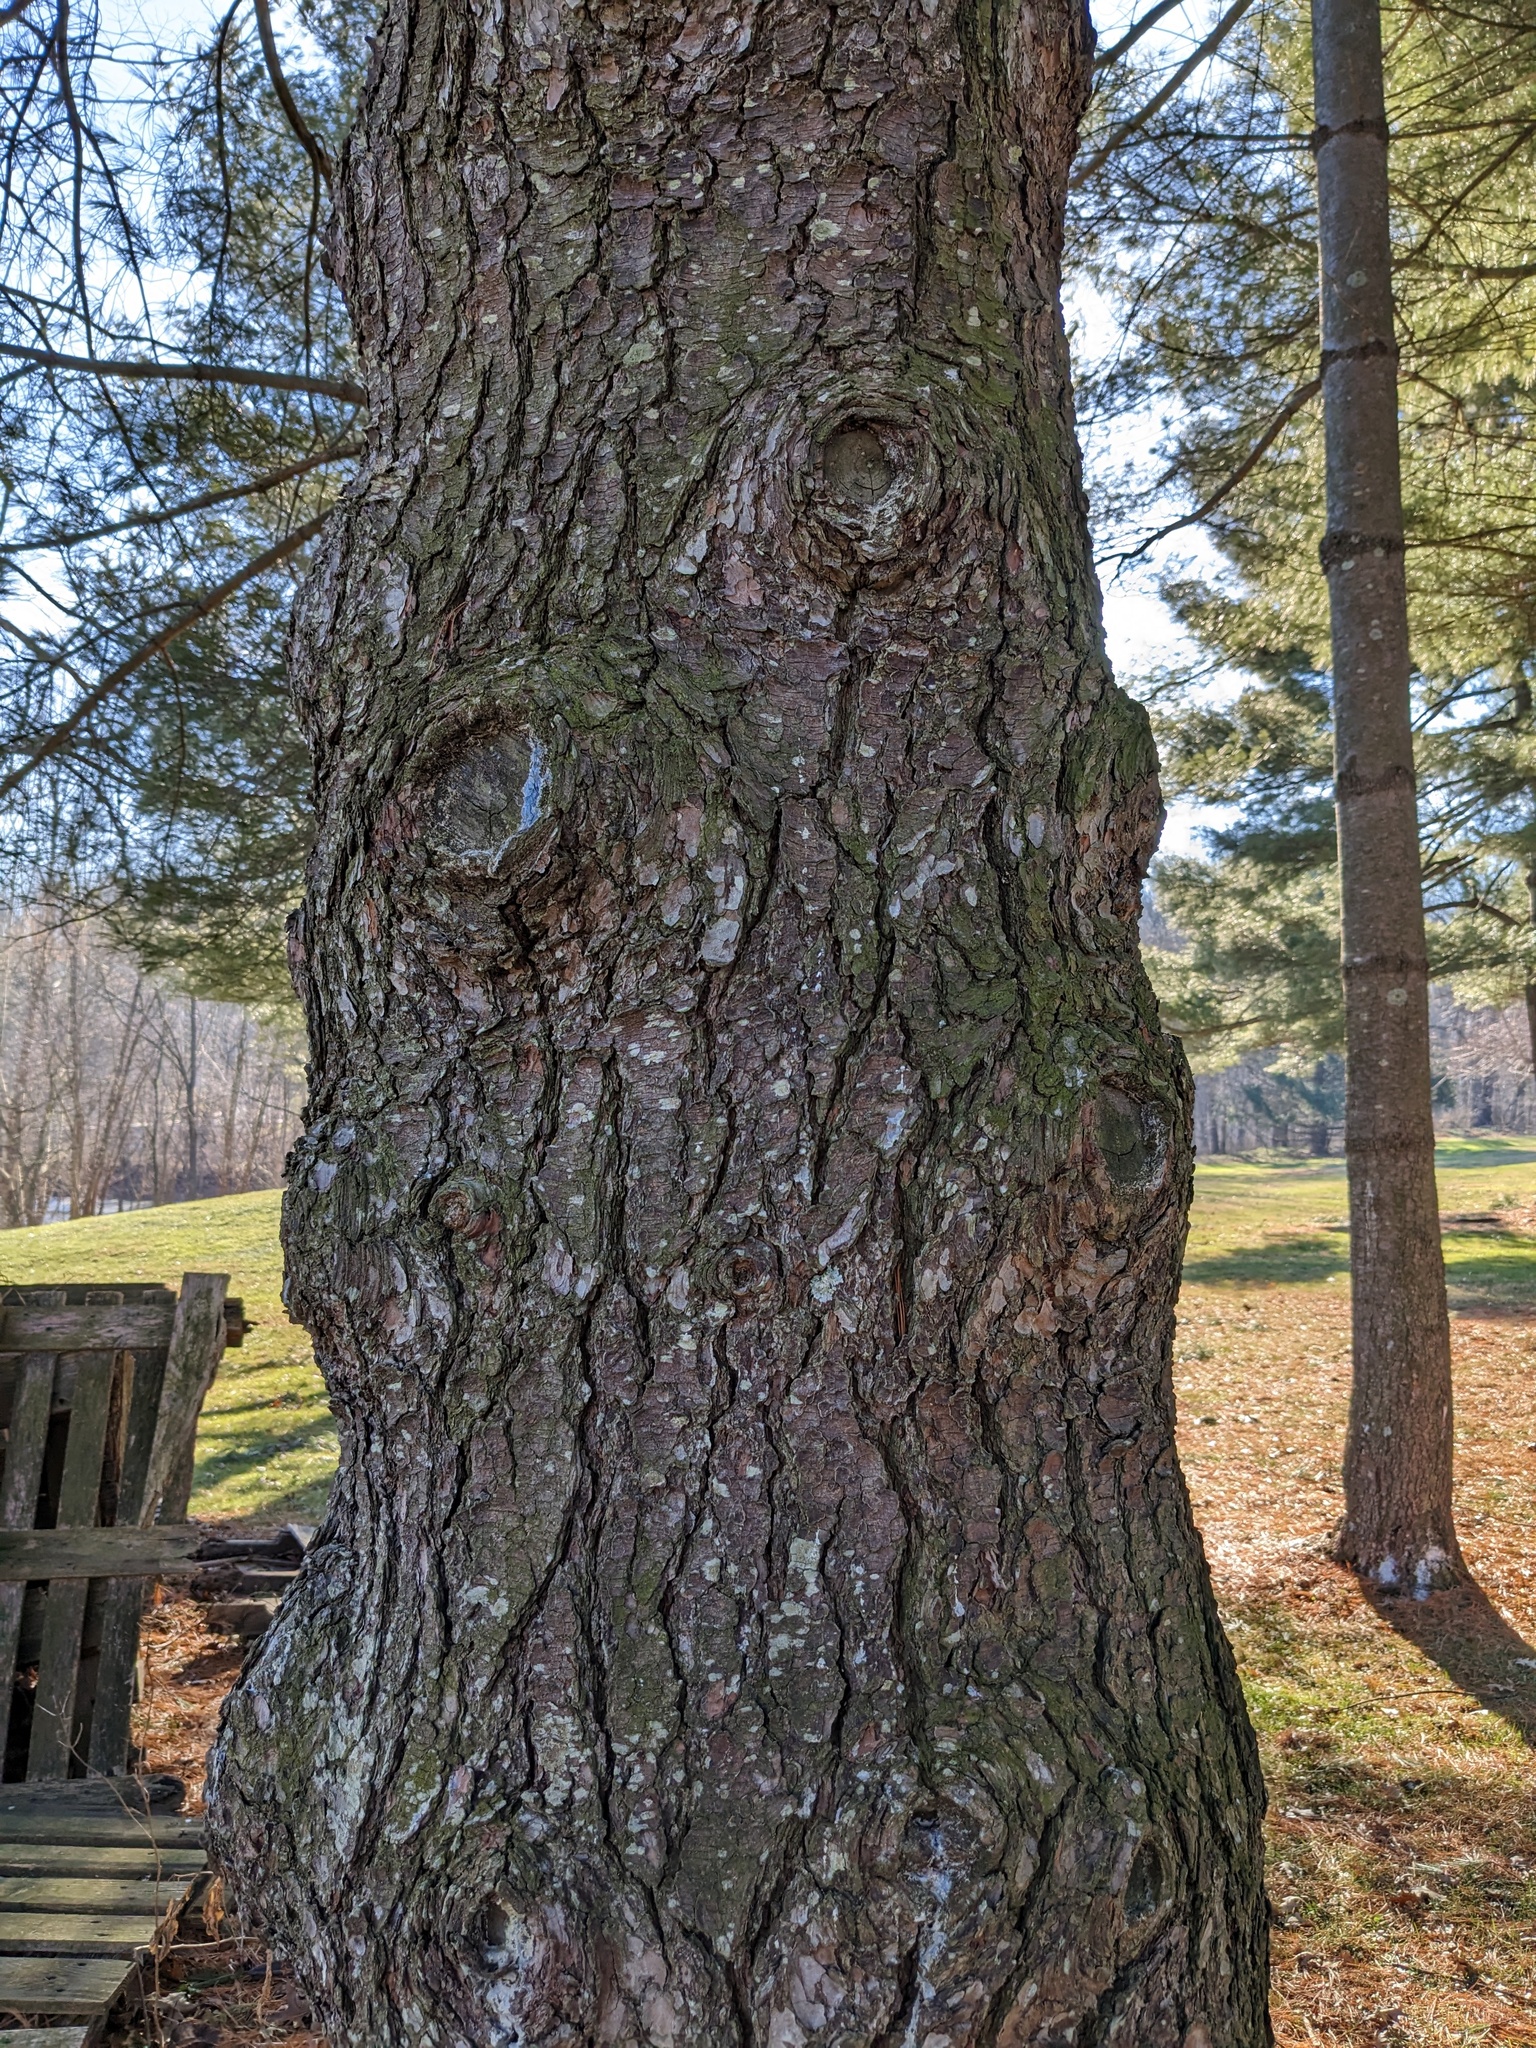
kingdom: Plantae
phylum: Tracheophyta
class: Pinopsida
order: Pinales
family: Pinaceae
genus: Pinus
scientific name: Pinus strobus
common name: Weymouth pine
